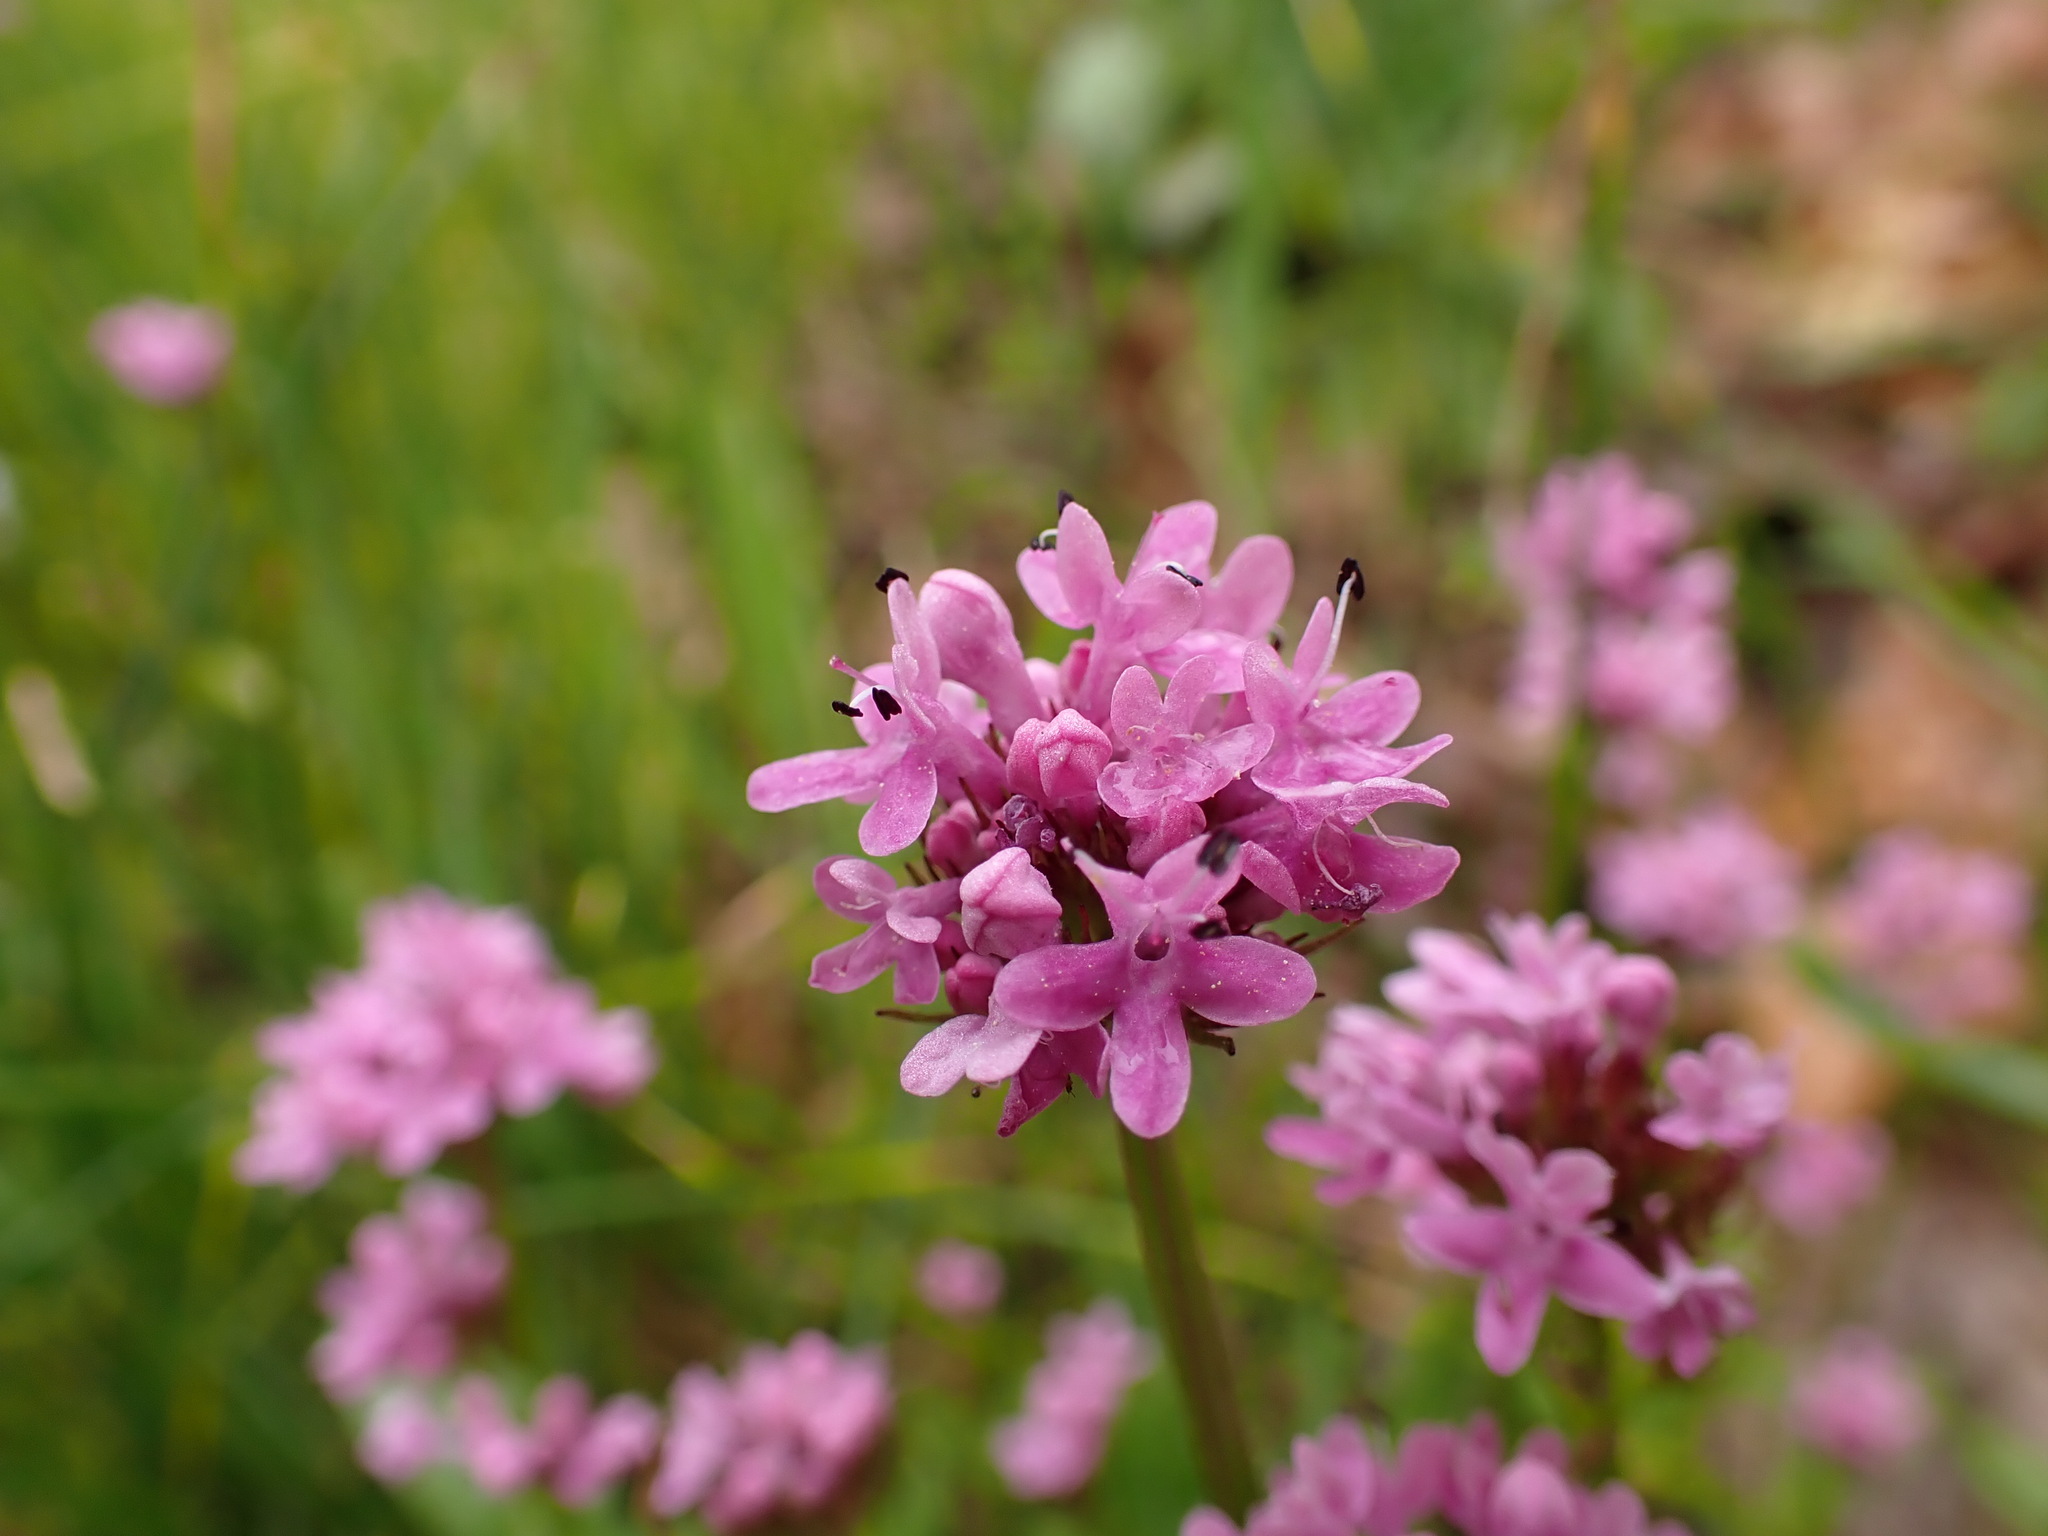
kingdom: Plantae
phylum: Tracheophyta
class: Magnoliopsida
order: Dipsacales
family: Caprifoliaceae
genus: Plectritis
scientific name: Plectritis congesta
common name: Pink plectritis
